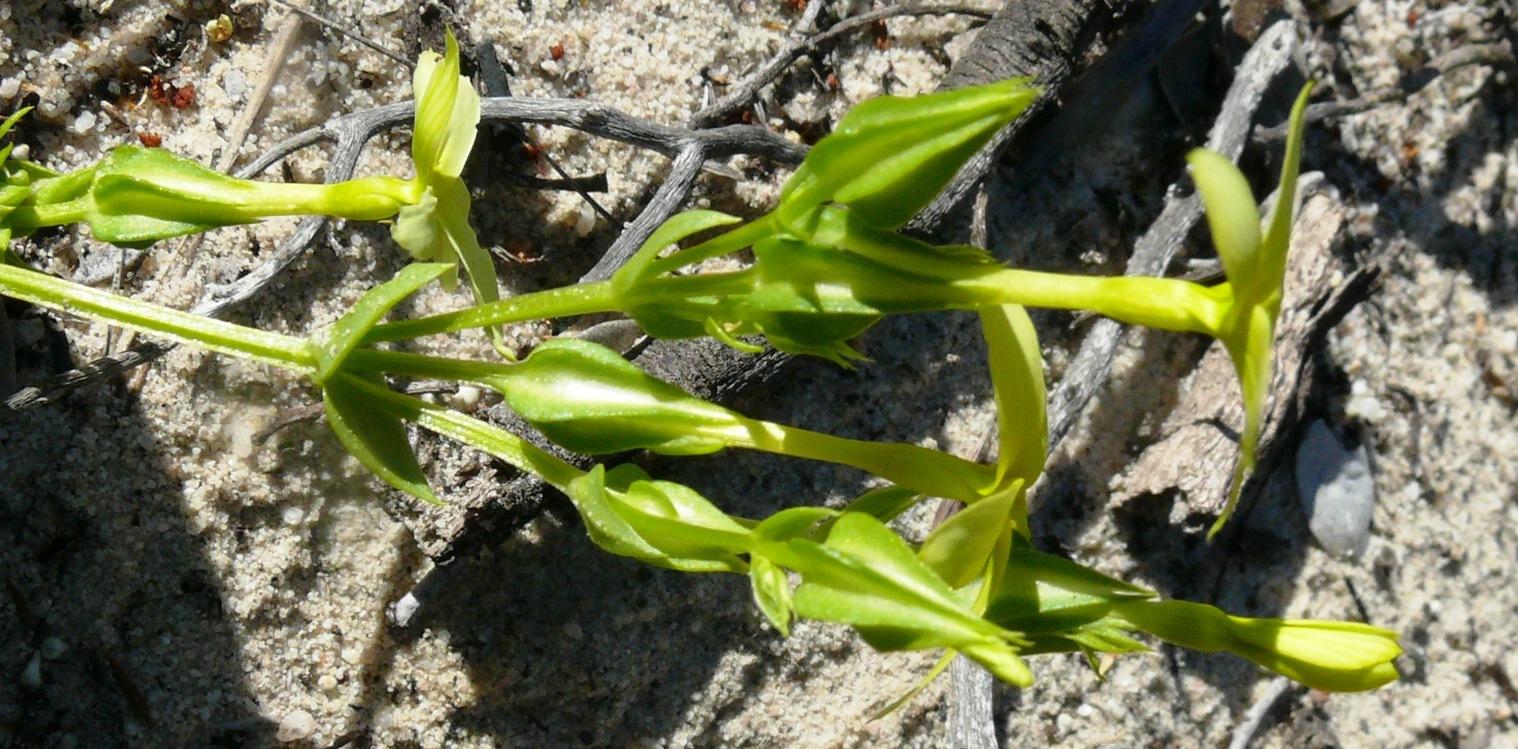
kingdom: Plantae
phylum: Tracheophyta
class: Magnoliopsida
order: Gentianales
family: Gentianaceae
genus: Sebaea
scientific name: Sebaea exacoides
